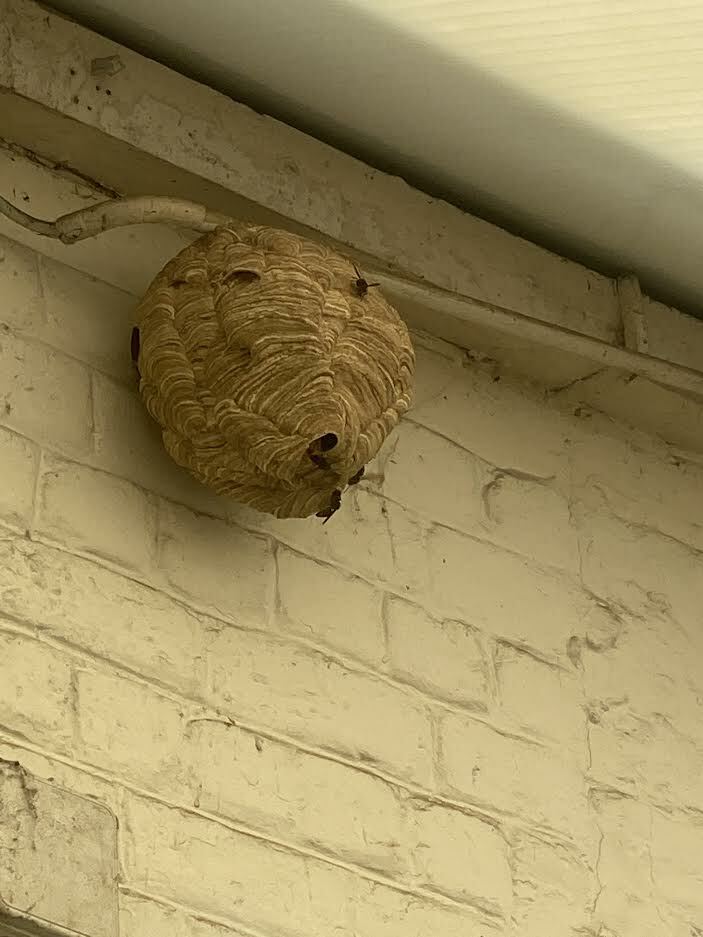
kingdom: Animalia
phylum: Arthropoda
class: Insecta
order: Hymenoptera
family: Vespidae
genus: Vespa
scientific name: Vespa velutina
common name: Asian hornet
